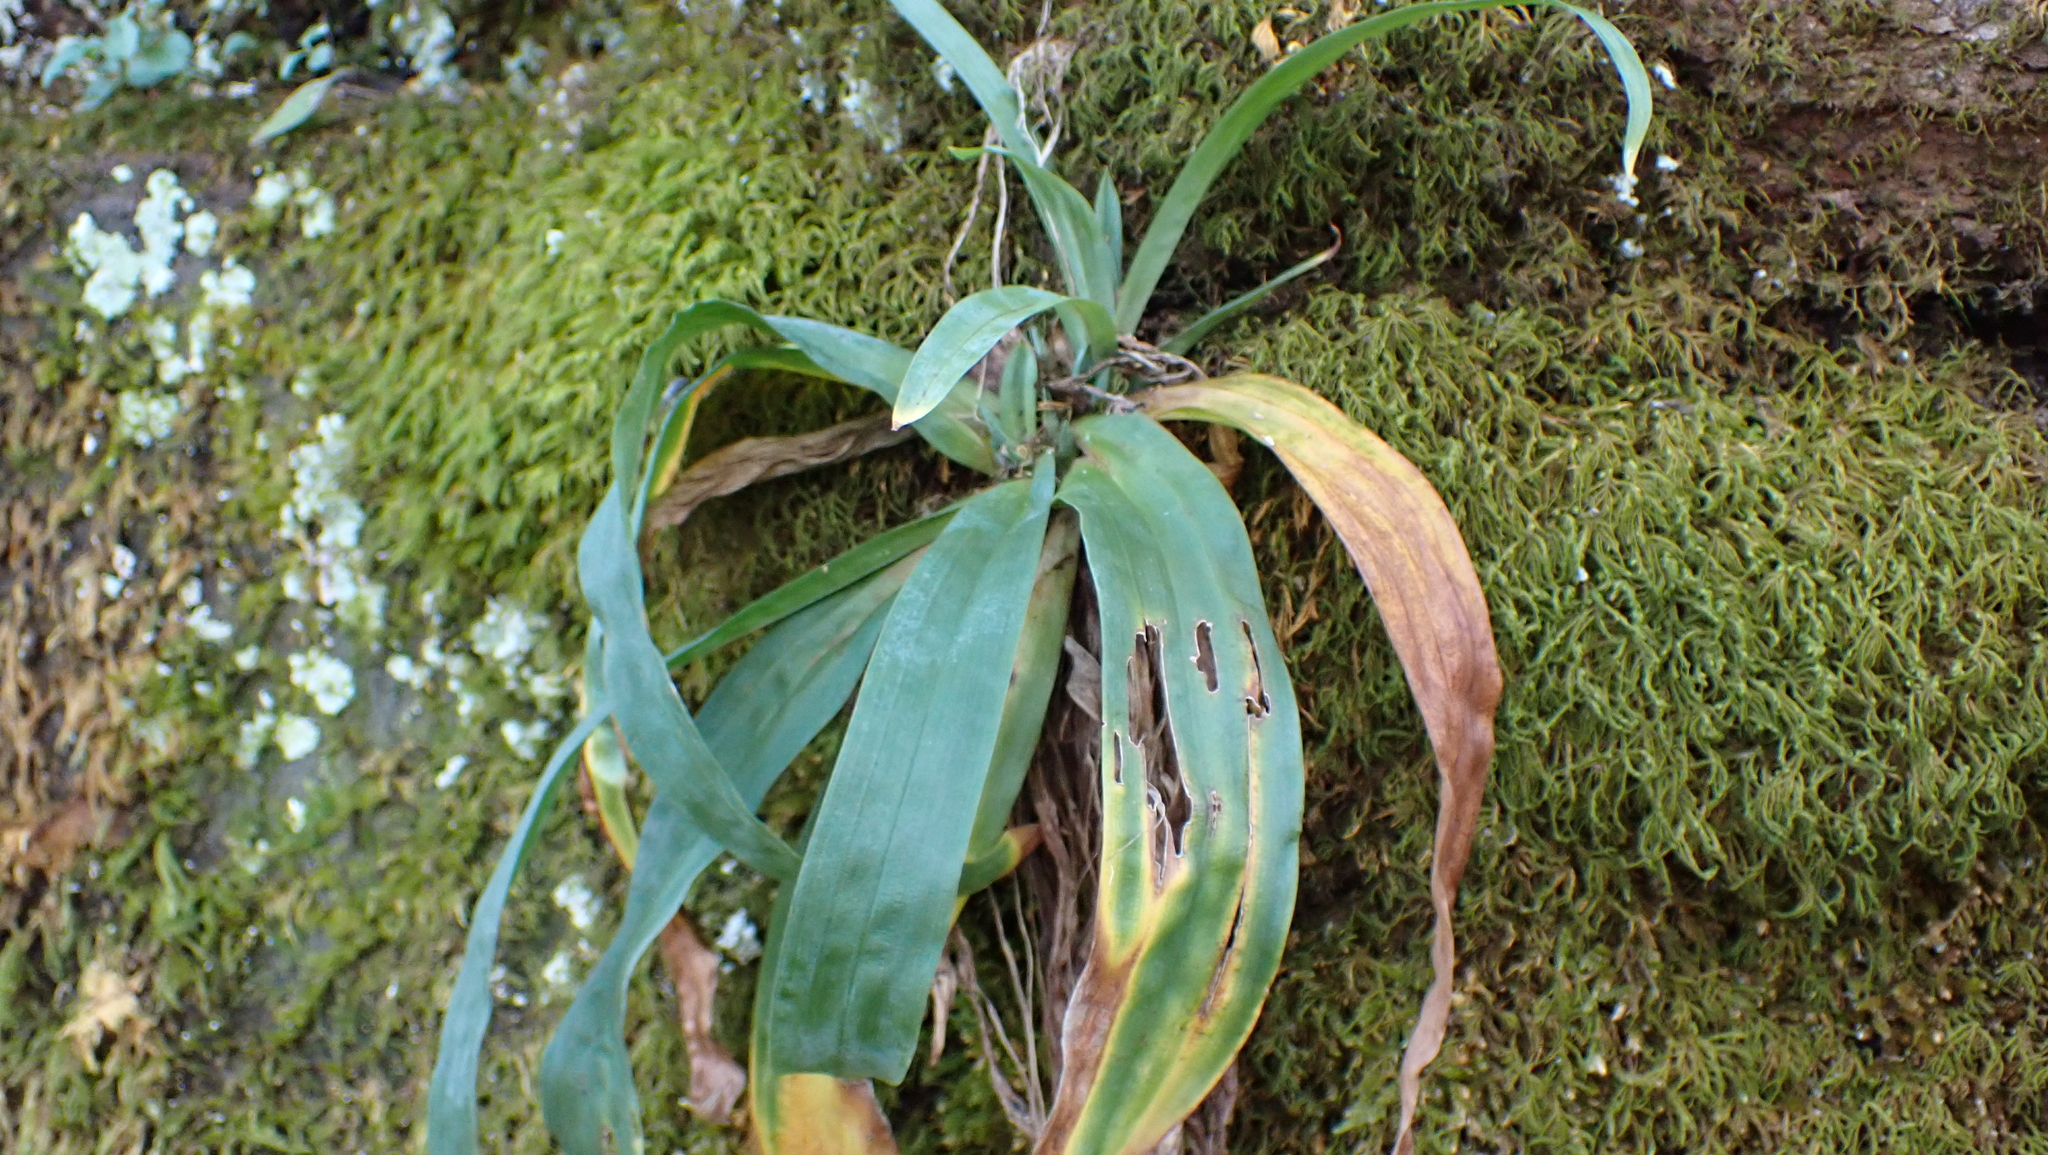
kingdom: Plantae
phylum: Tracheophyta
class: Liliopsida
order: Poales
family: Cyperaceae
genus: Carex
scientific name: Carex platyphylla
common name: Broad-leaved sedge
